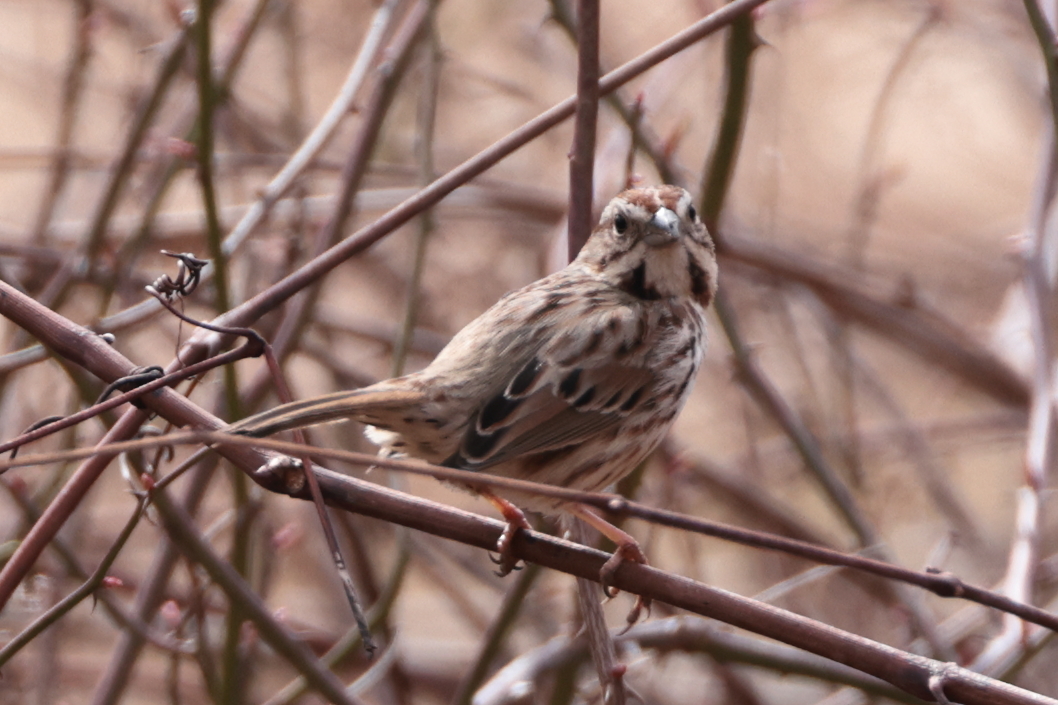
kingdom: Animalia
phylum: Chordata
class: Aves
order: Passeriformes
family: Passerellidae
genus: Melospiza
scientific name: Melospiza melodia
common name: Song sparrow
